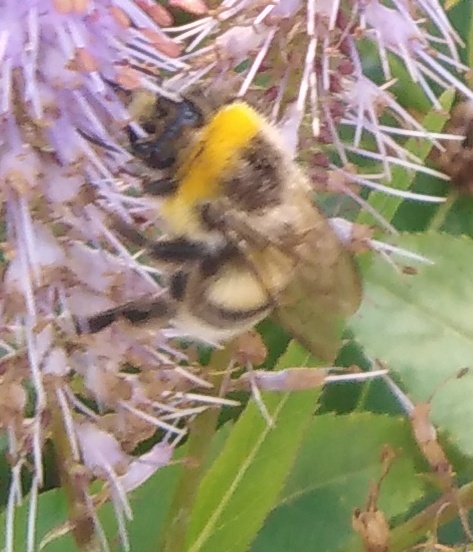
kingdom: Animalia
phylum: Arthropoda
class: Insecta
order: Hymenoptera
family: Apidae
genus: Bombus
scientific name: Bombus lucorum
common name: White-tailed bumblebee
